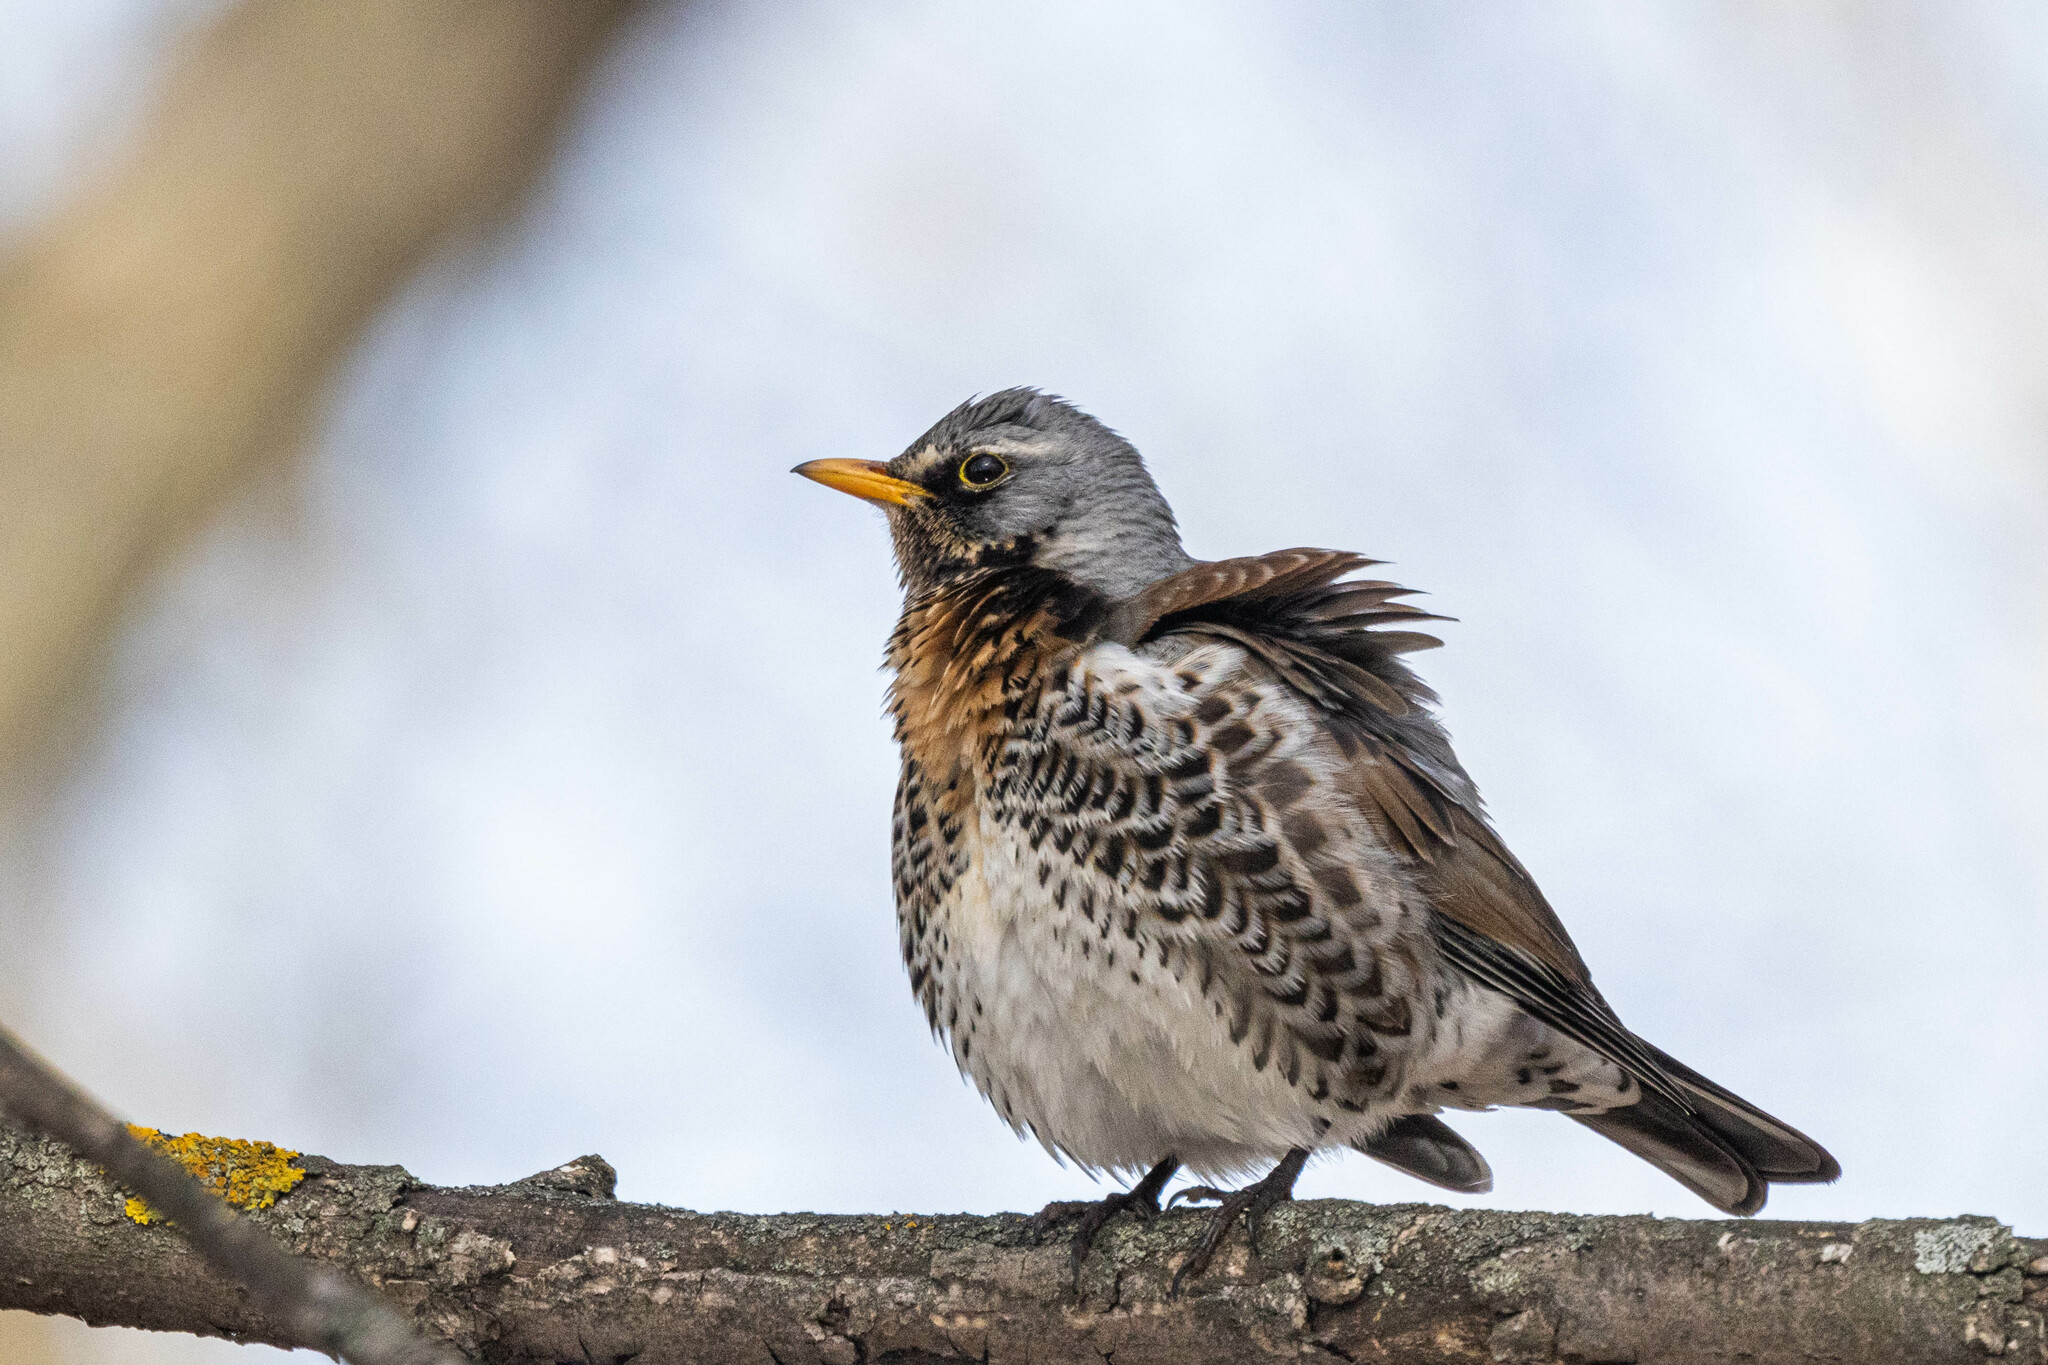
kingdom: Animalia
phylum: Chordata
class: Aves
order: Passeriformes
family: Turdidae
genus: Turdus
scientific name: Turdus pilaris
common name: Fieldfare
